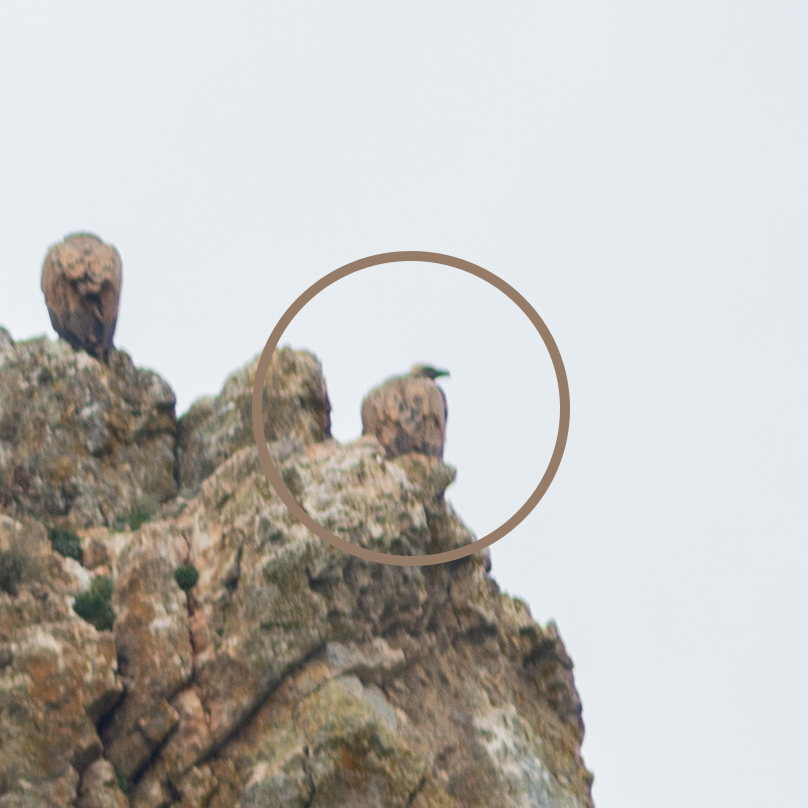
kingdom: Animalia
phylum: Chordata
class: Aves
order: Accipitriformes
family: Accipitridae
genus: Gyps
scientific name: Gyps fulvus
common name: Griffon vulture
